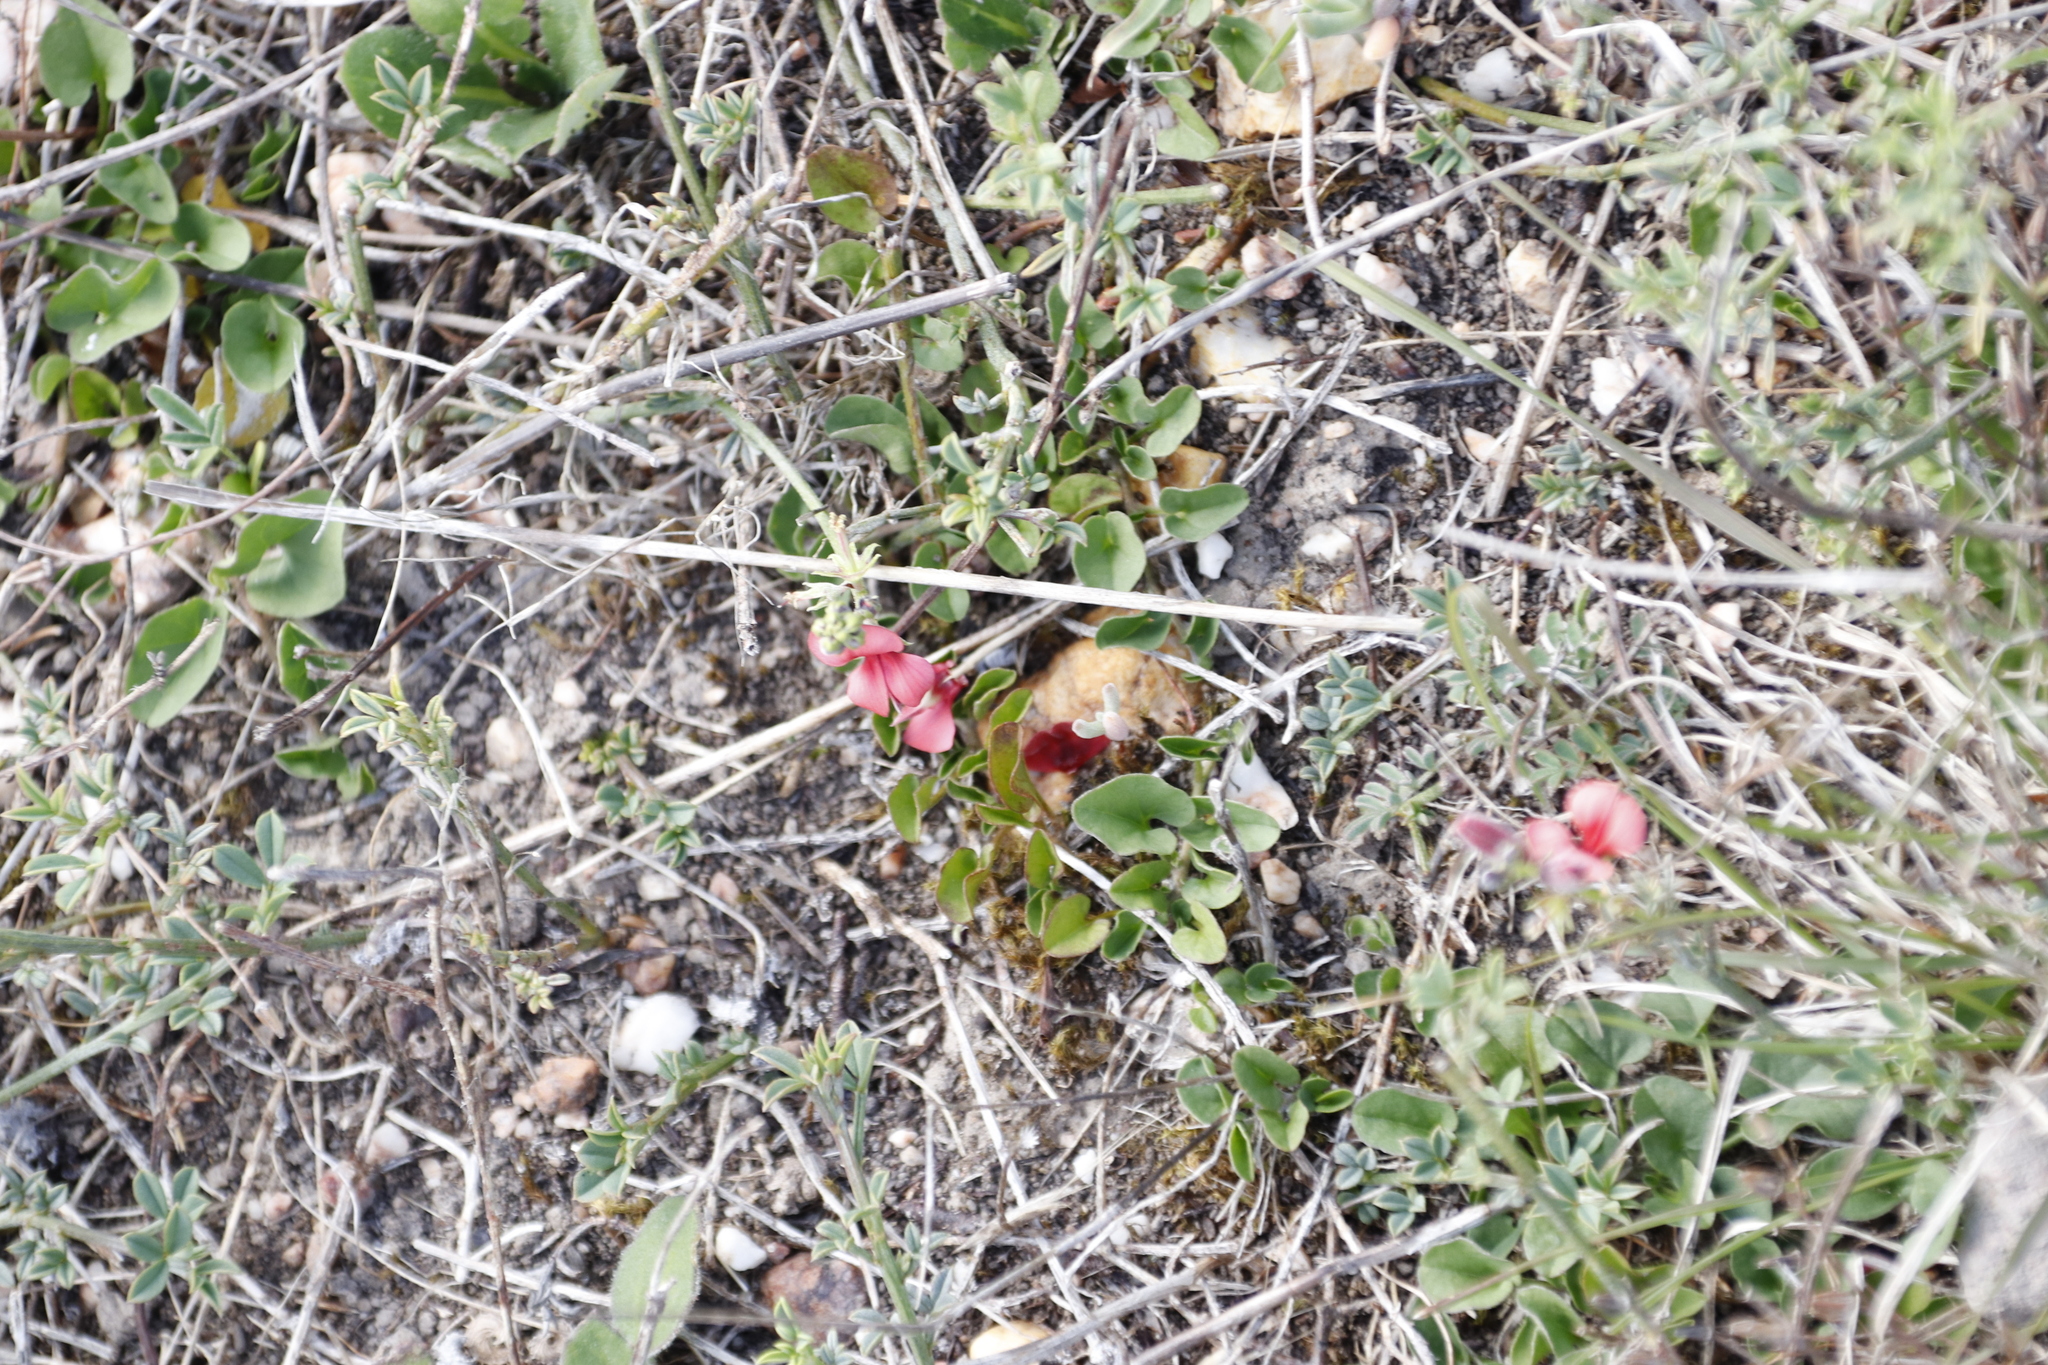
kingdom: Plantae
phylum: Tracheophyta
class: Magnoliopsida
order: Fabales
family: Fabaceae
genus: Indigofera
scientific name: Indigofera heterophylla
